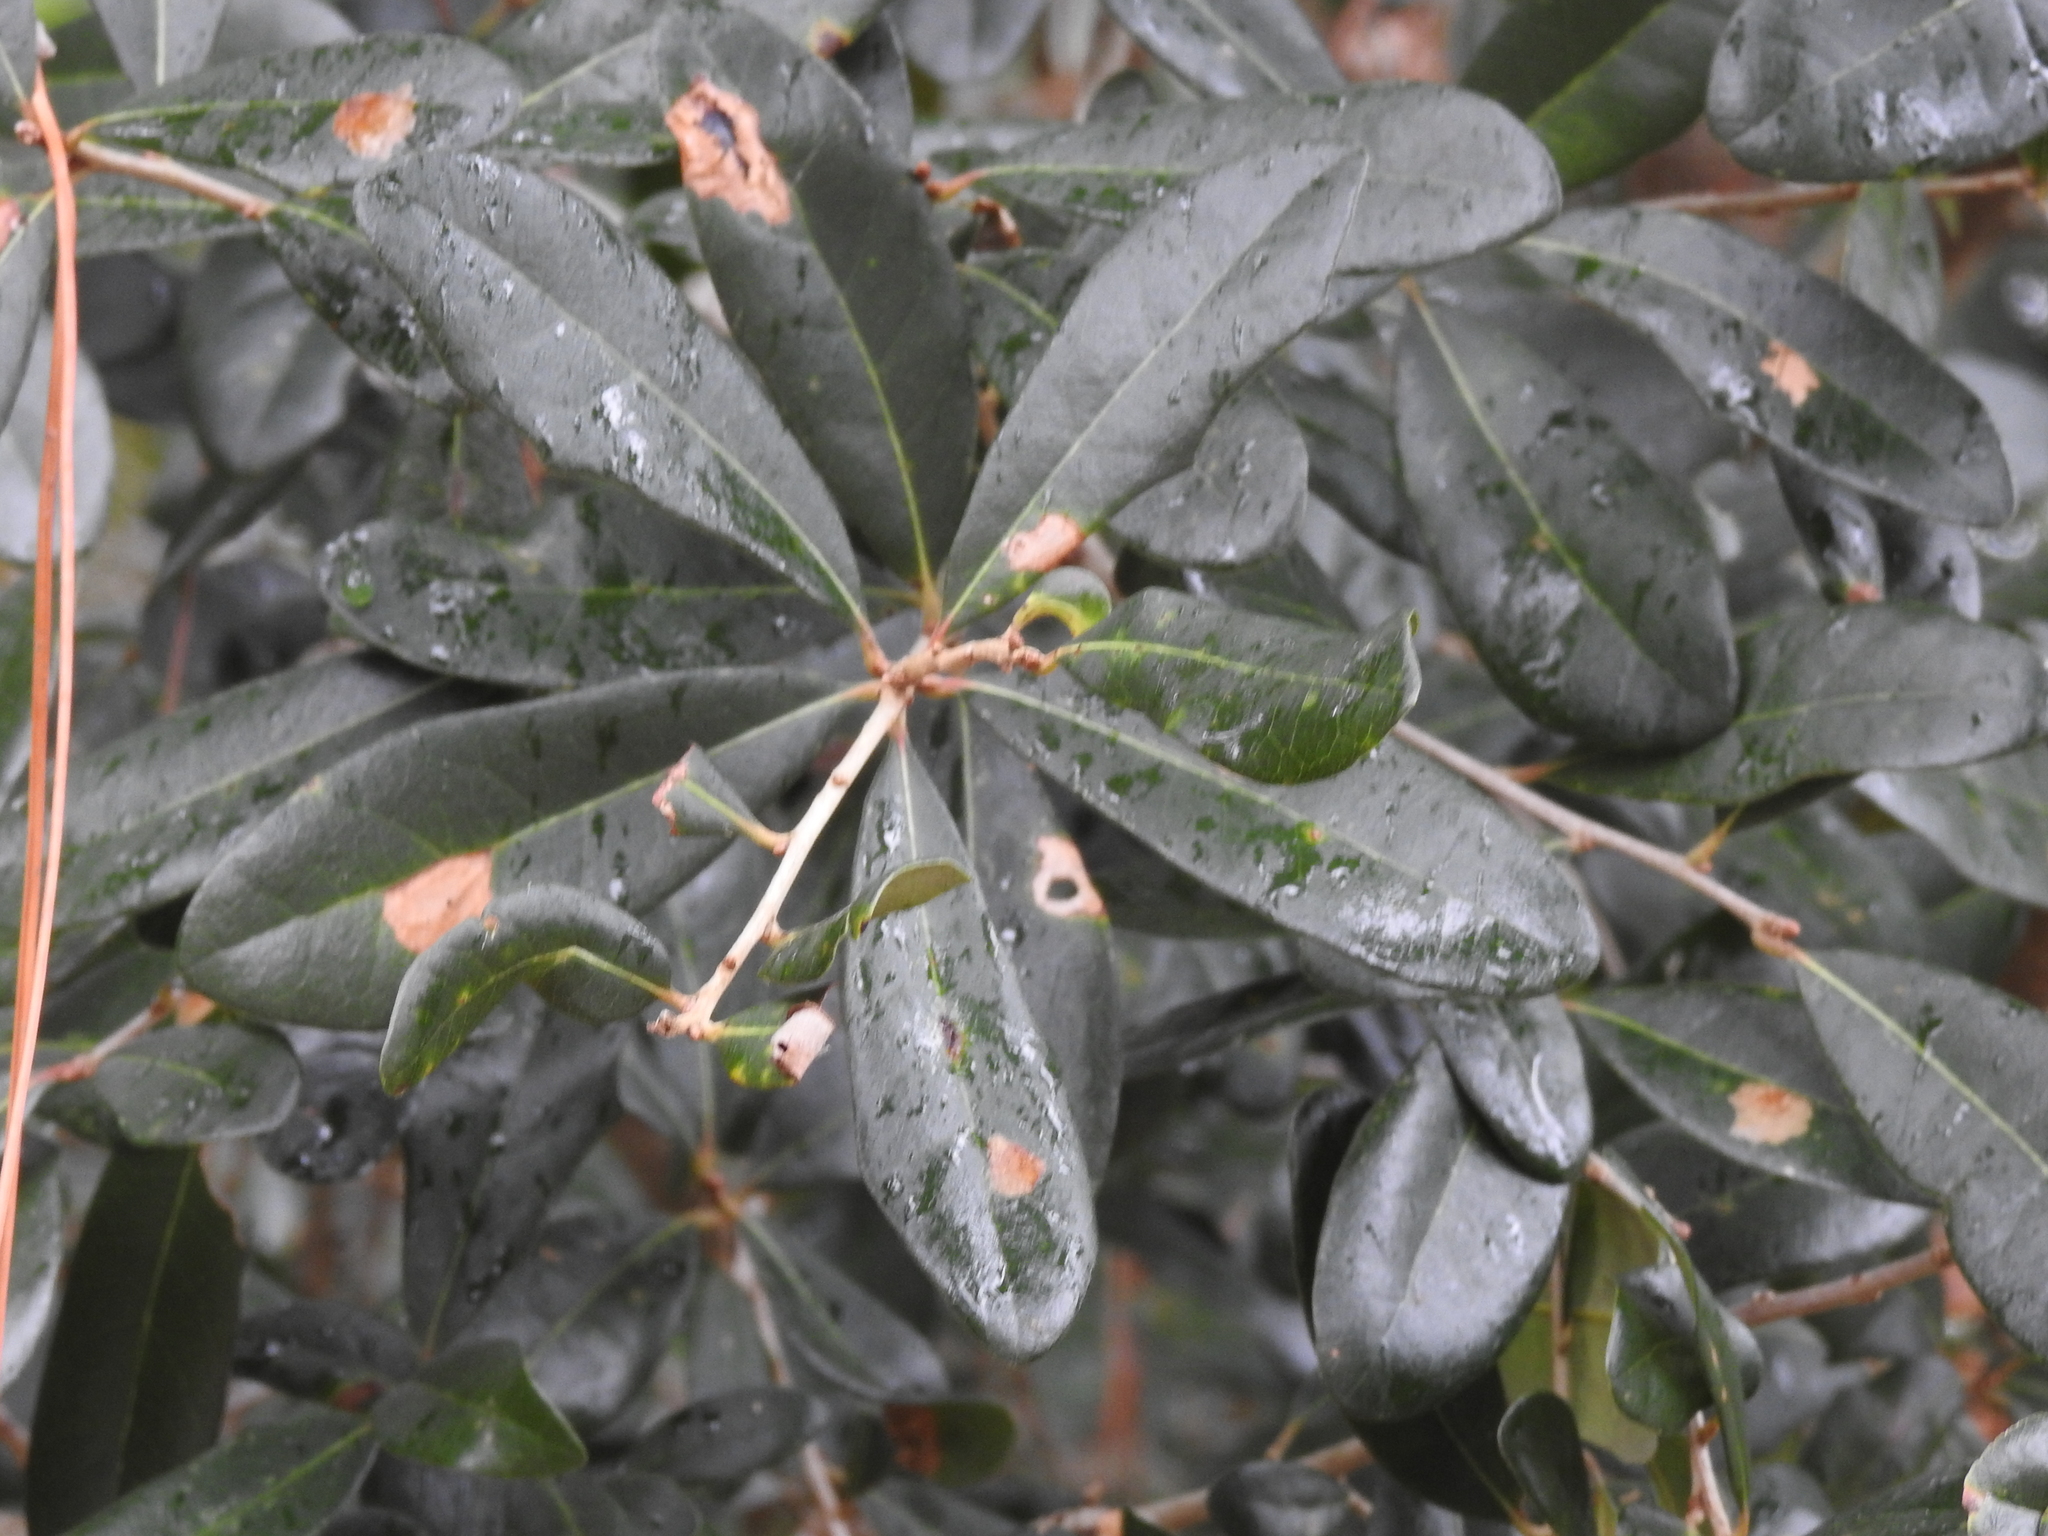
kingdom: Plantae
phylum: Tracheophyta
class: Magnoliopsida
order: Fagales
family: Fagaceae
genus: Quercus
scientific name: Quercus virginiana
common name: Southern live oak
